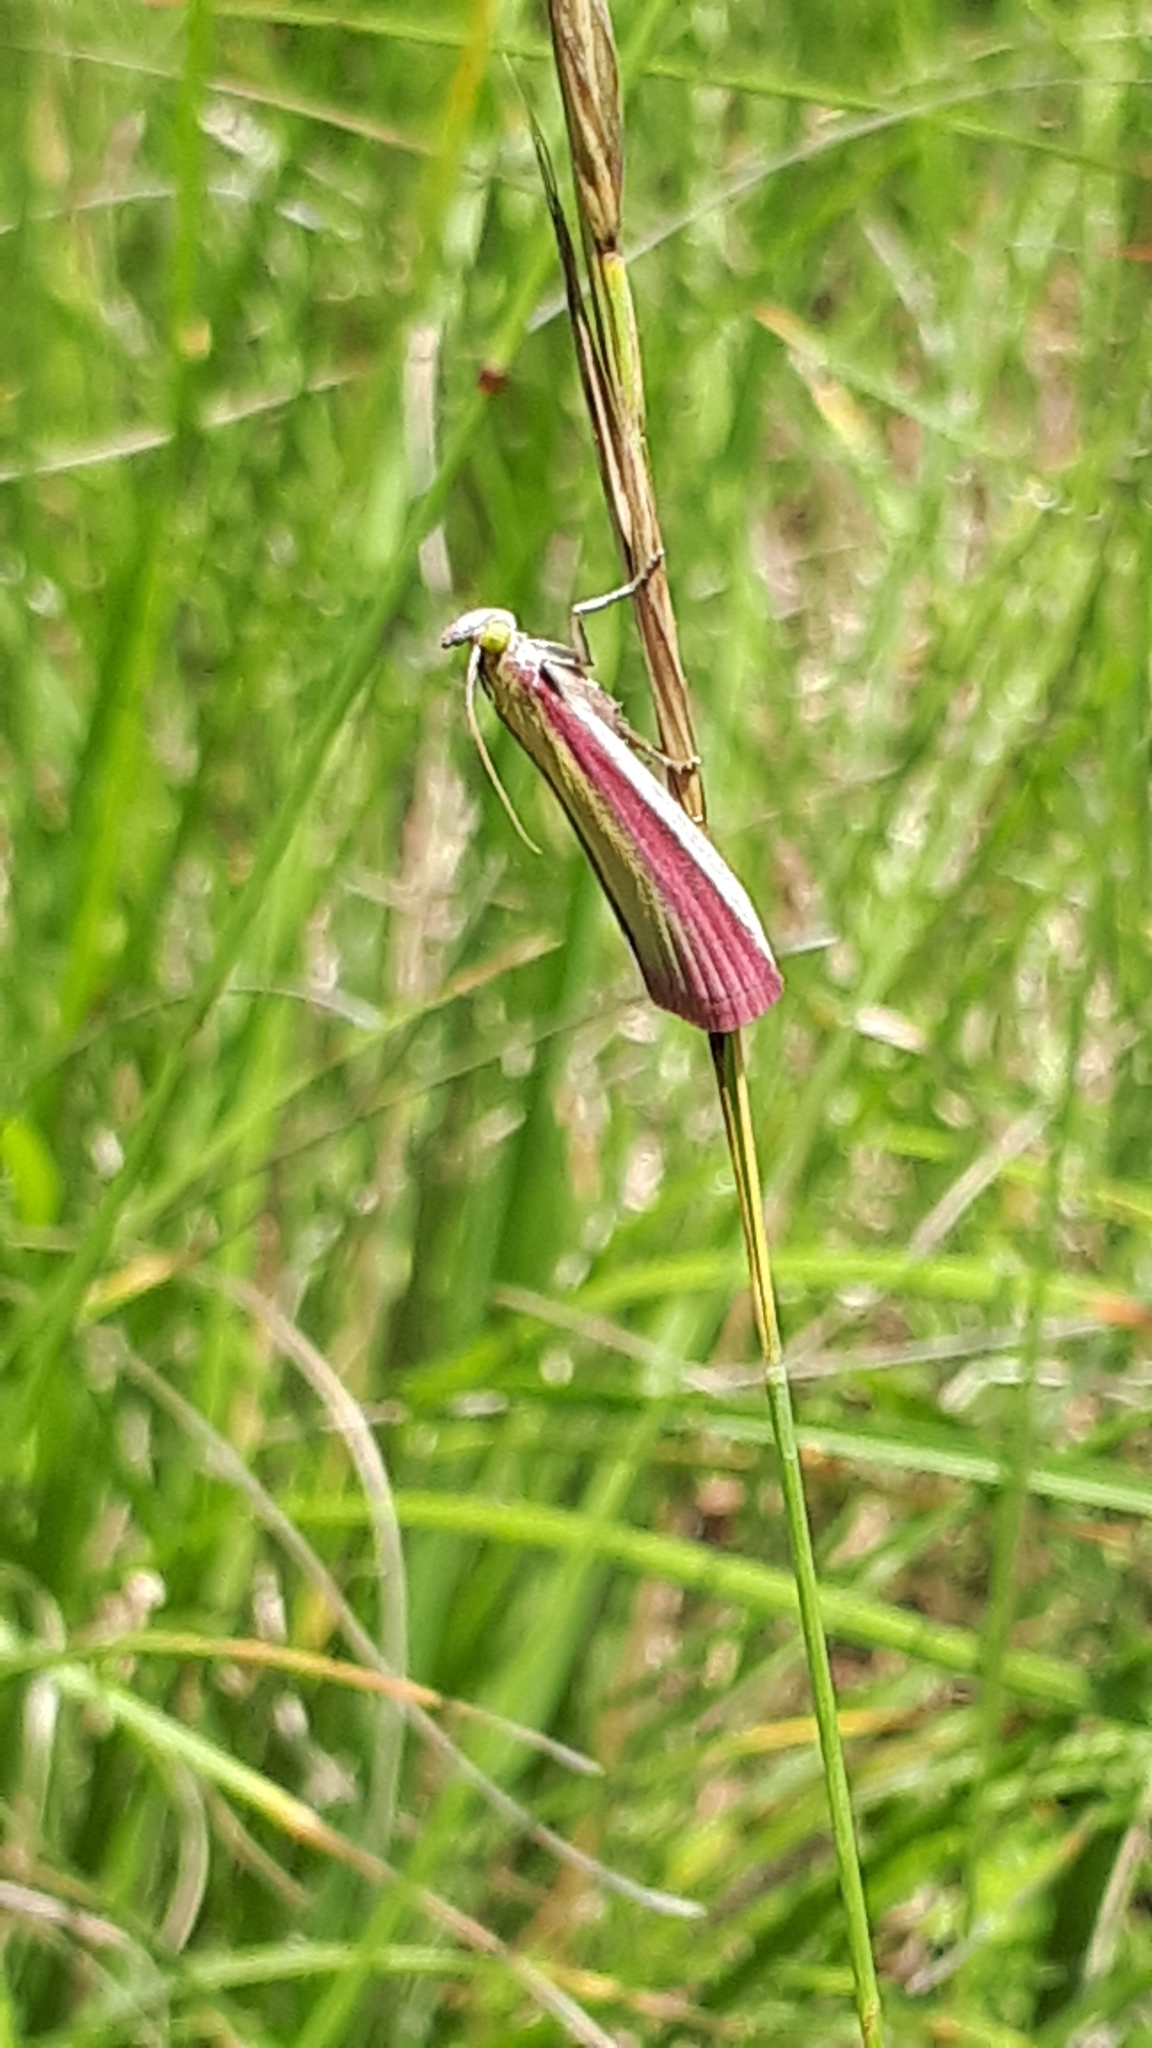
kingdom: Animalia
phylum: Arthropoda
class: Insecta
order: Lepidoptera
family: Pyralidae
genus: Oncocera
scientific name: Oncocera semirubella
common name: Rosy-striped knot-horn
